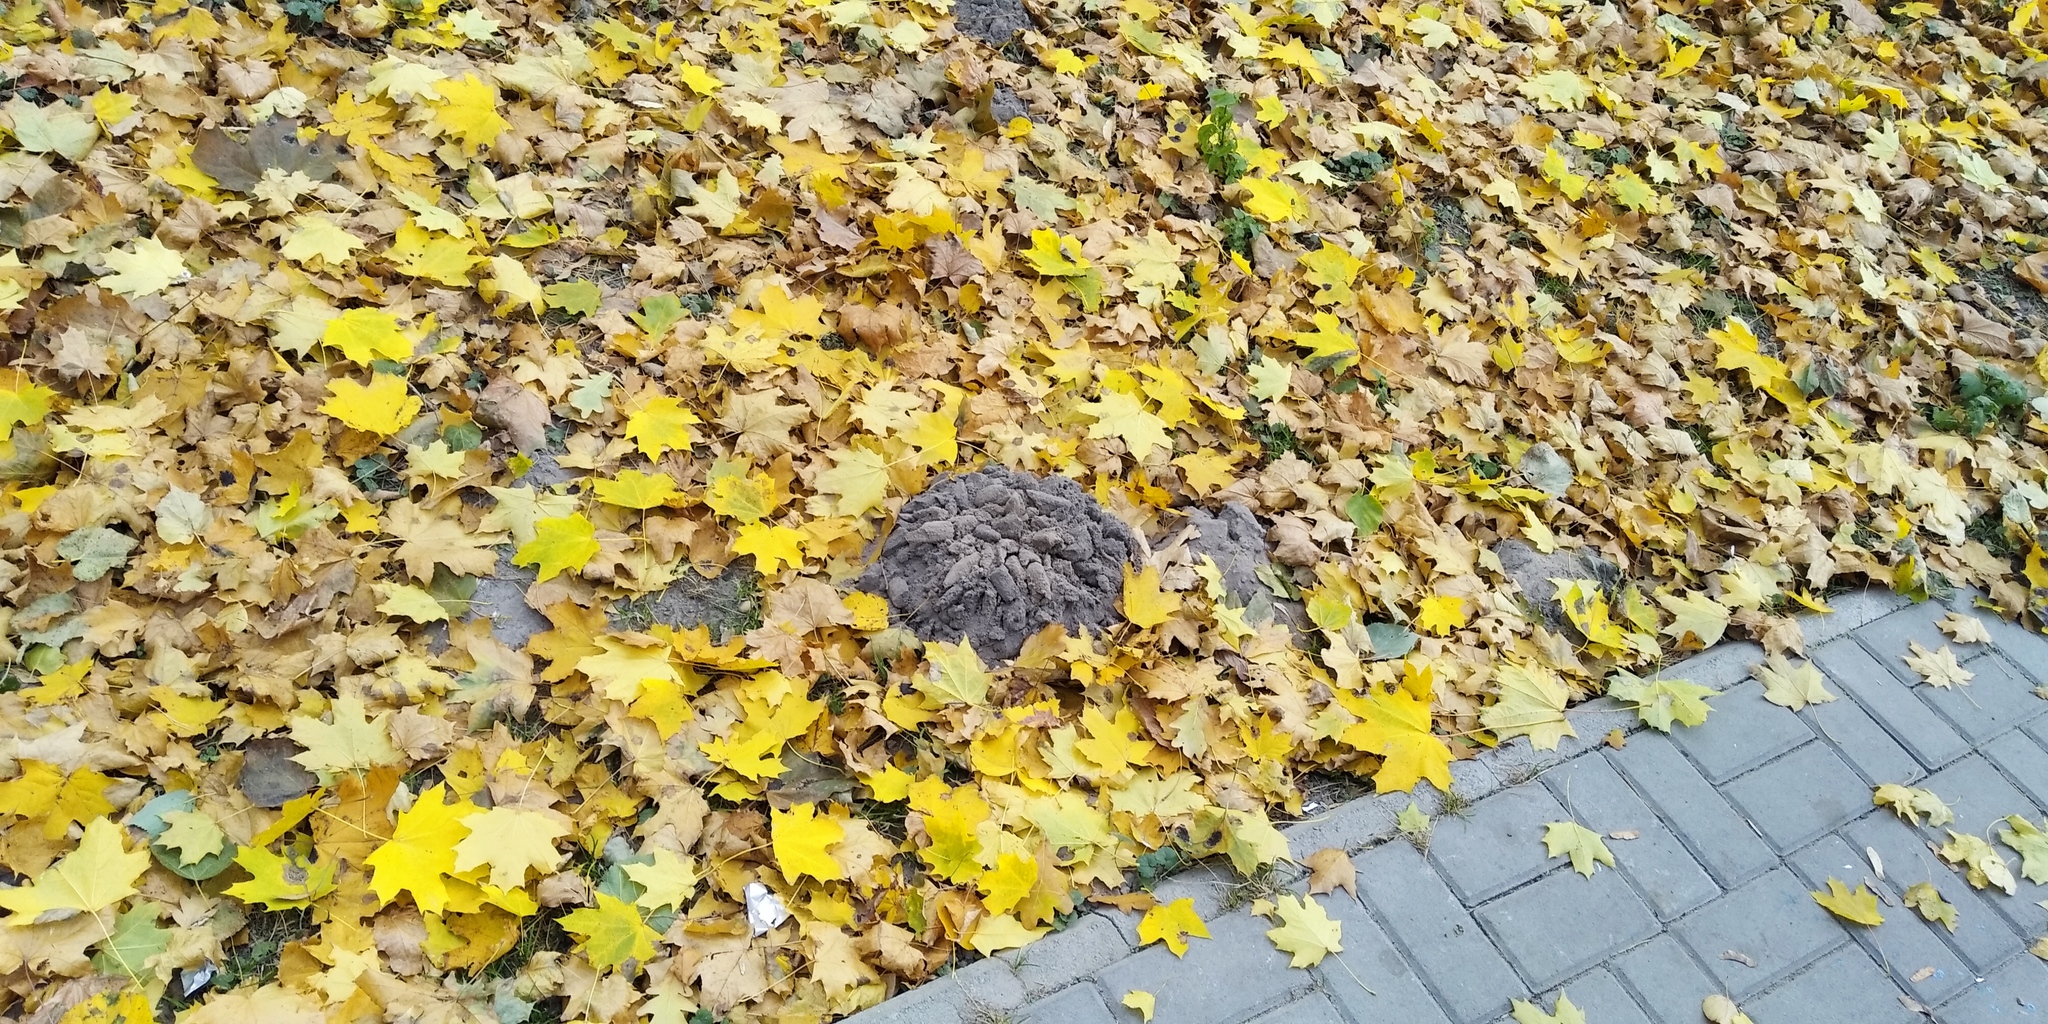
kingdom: Animalia
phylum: Chordata
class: Mammalia
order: Soricomorpha
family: Talpidae
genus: Talpa
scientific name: Talpa europaea
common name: European mole
